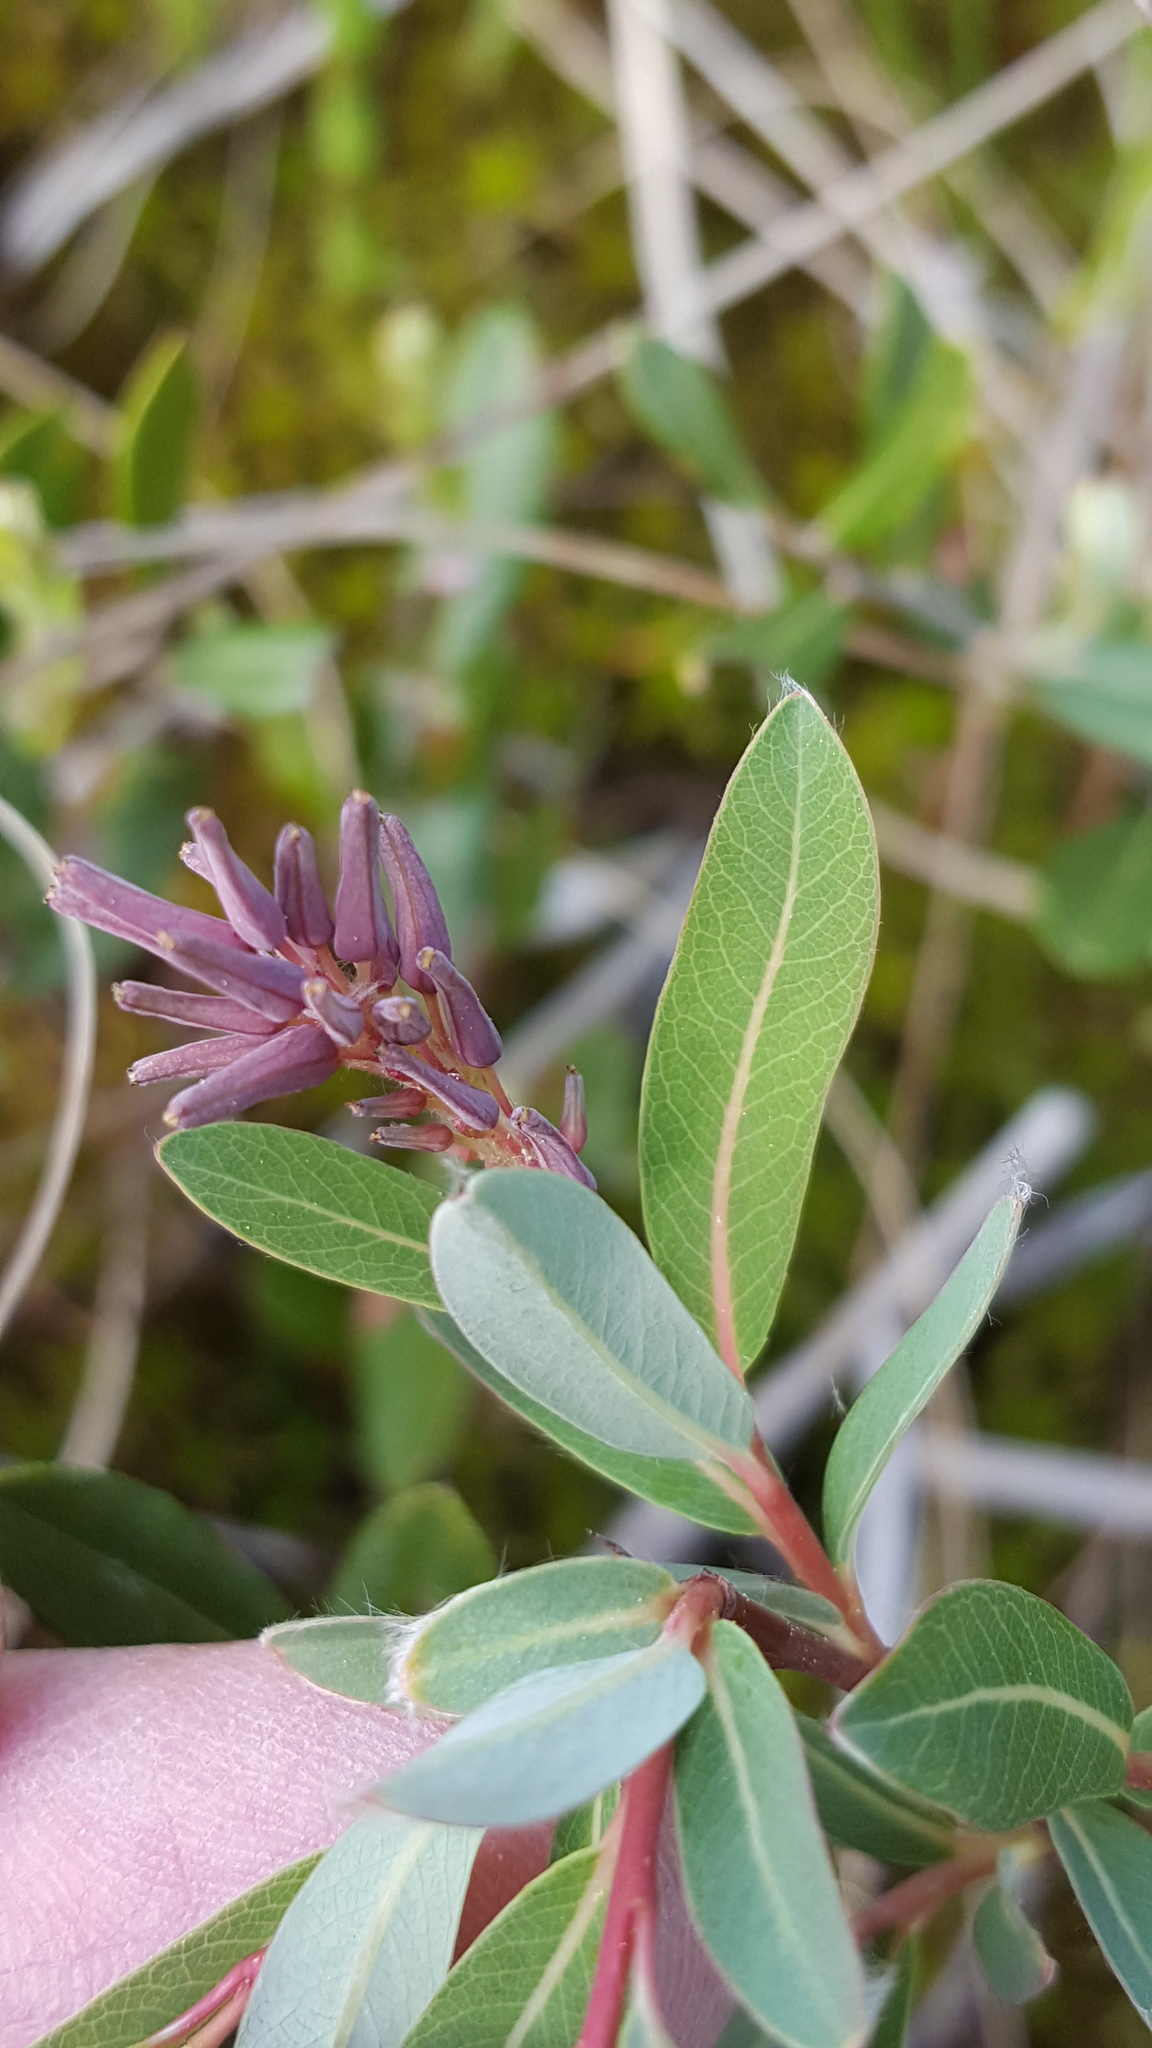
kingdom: Plantae
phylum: Tracheophyta
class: Magnoliopsida
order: Malpighiales
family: Salicaceae
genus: Salix
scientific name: Salix pedicellaris
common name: Bog willow
